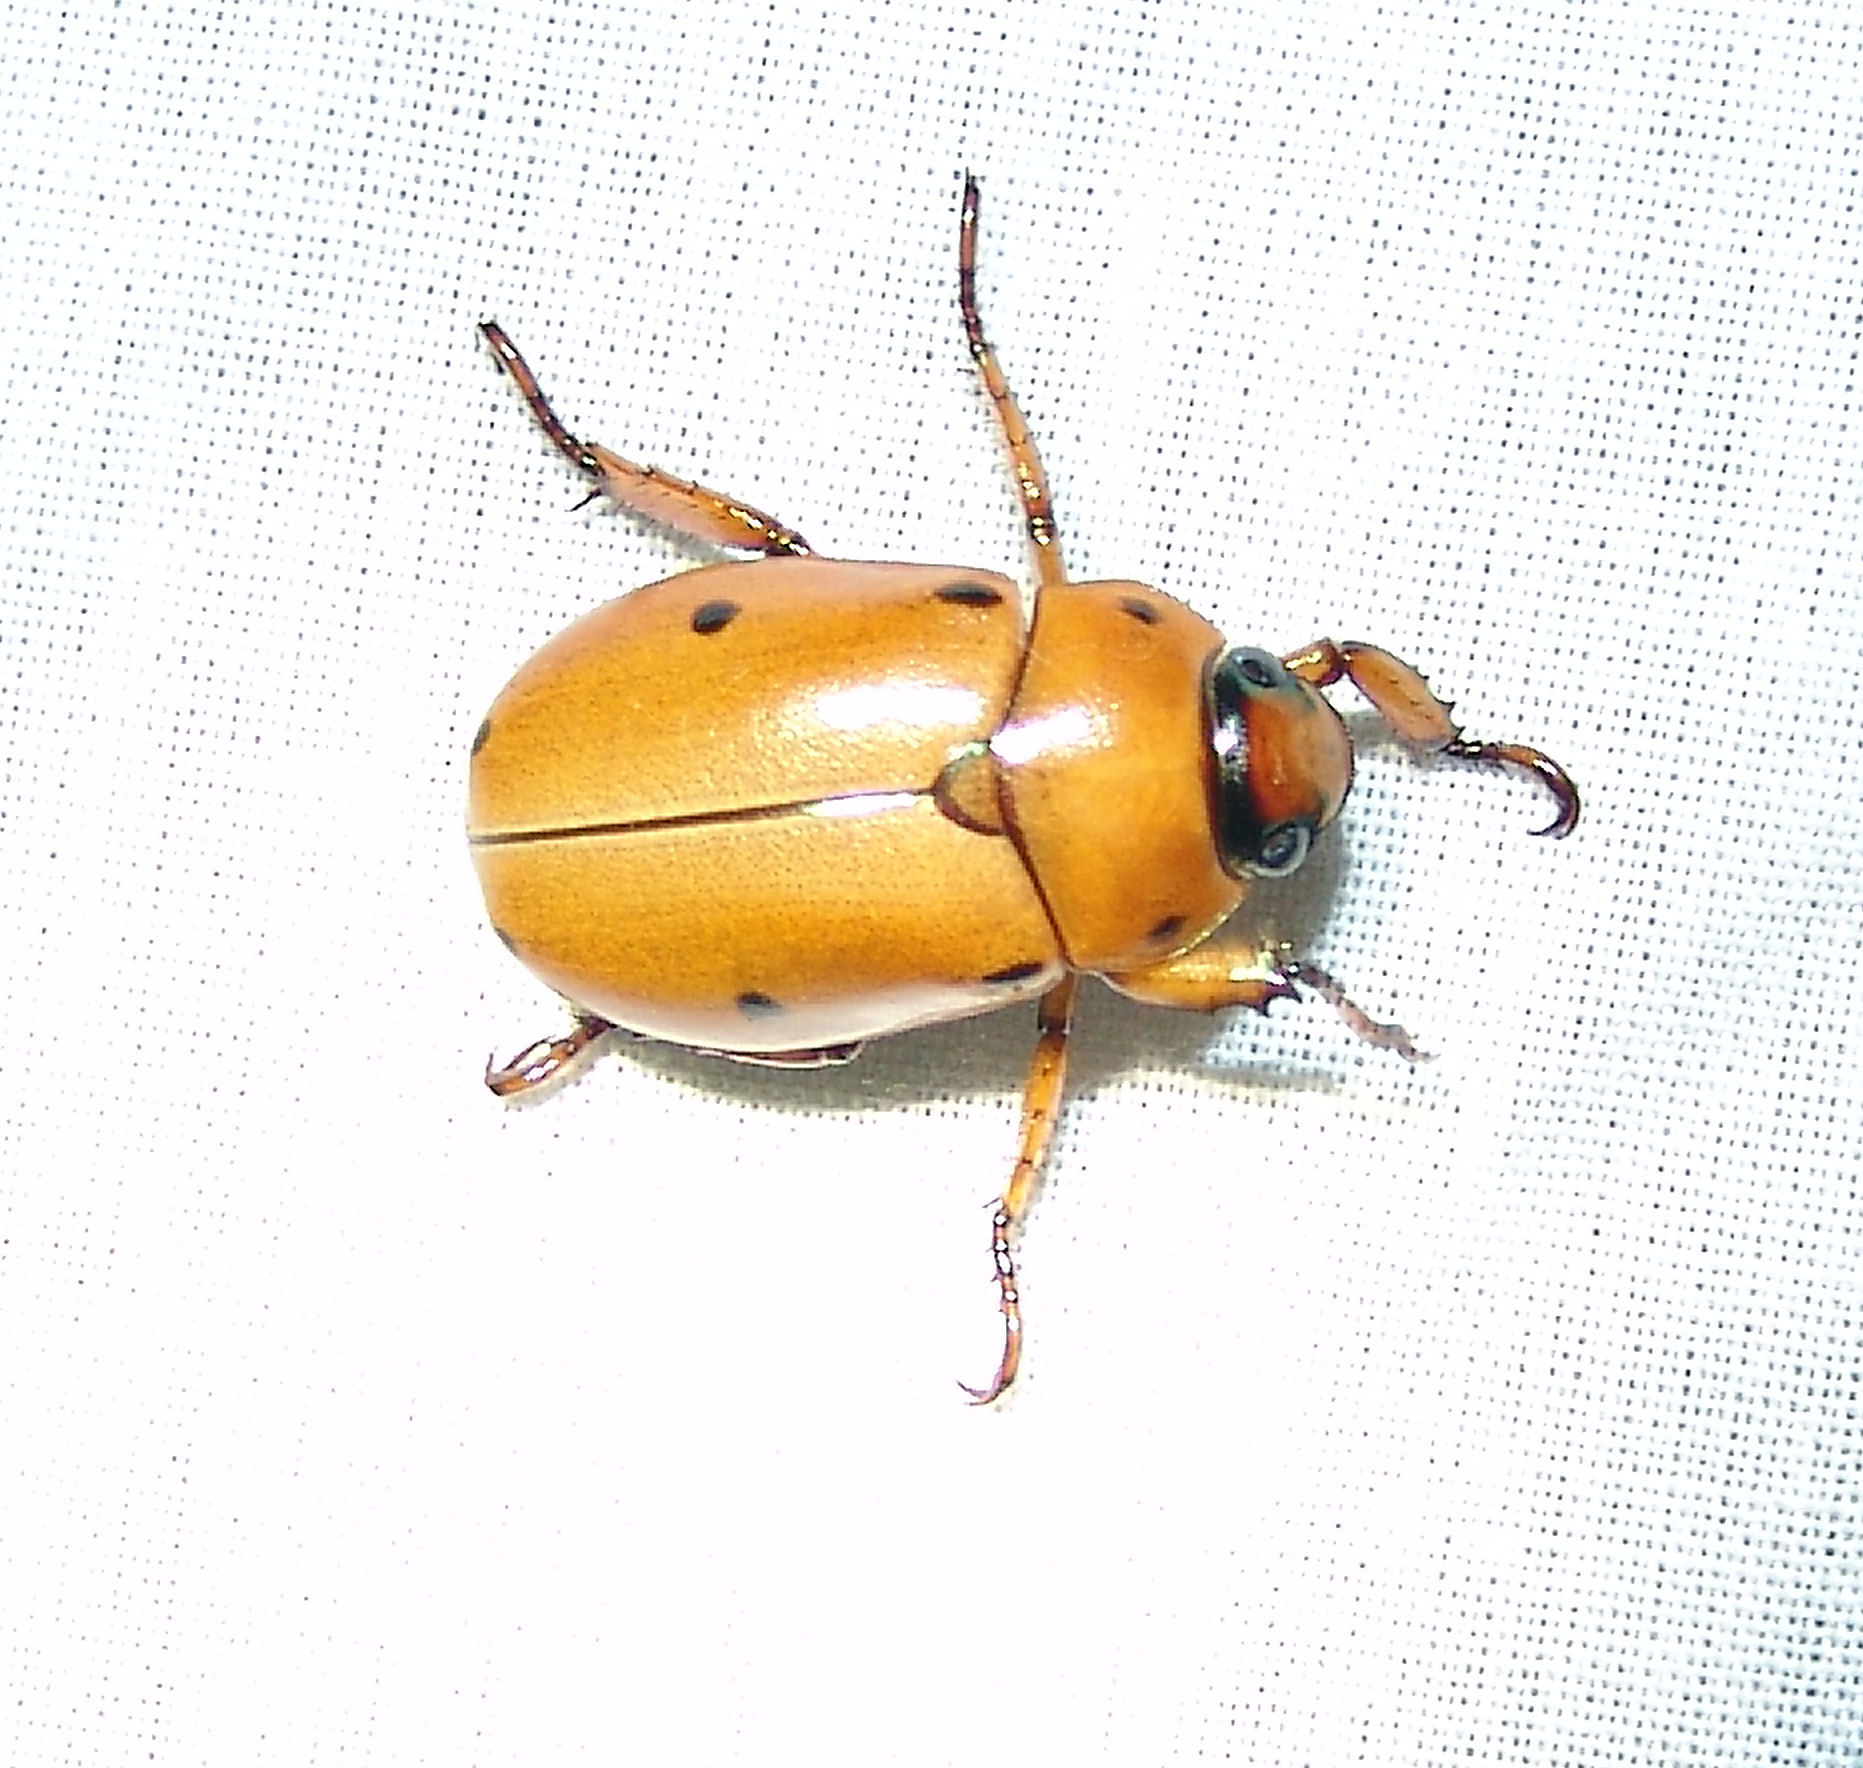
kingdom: Animalia
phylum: Arthropoda
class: Insecta
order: Coleoptera
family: Scarabaeidae
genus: Pelidnota
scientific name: Pelidnota punctata
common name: Grapevine beetle
